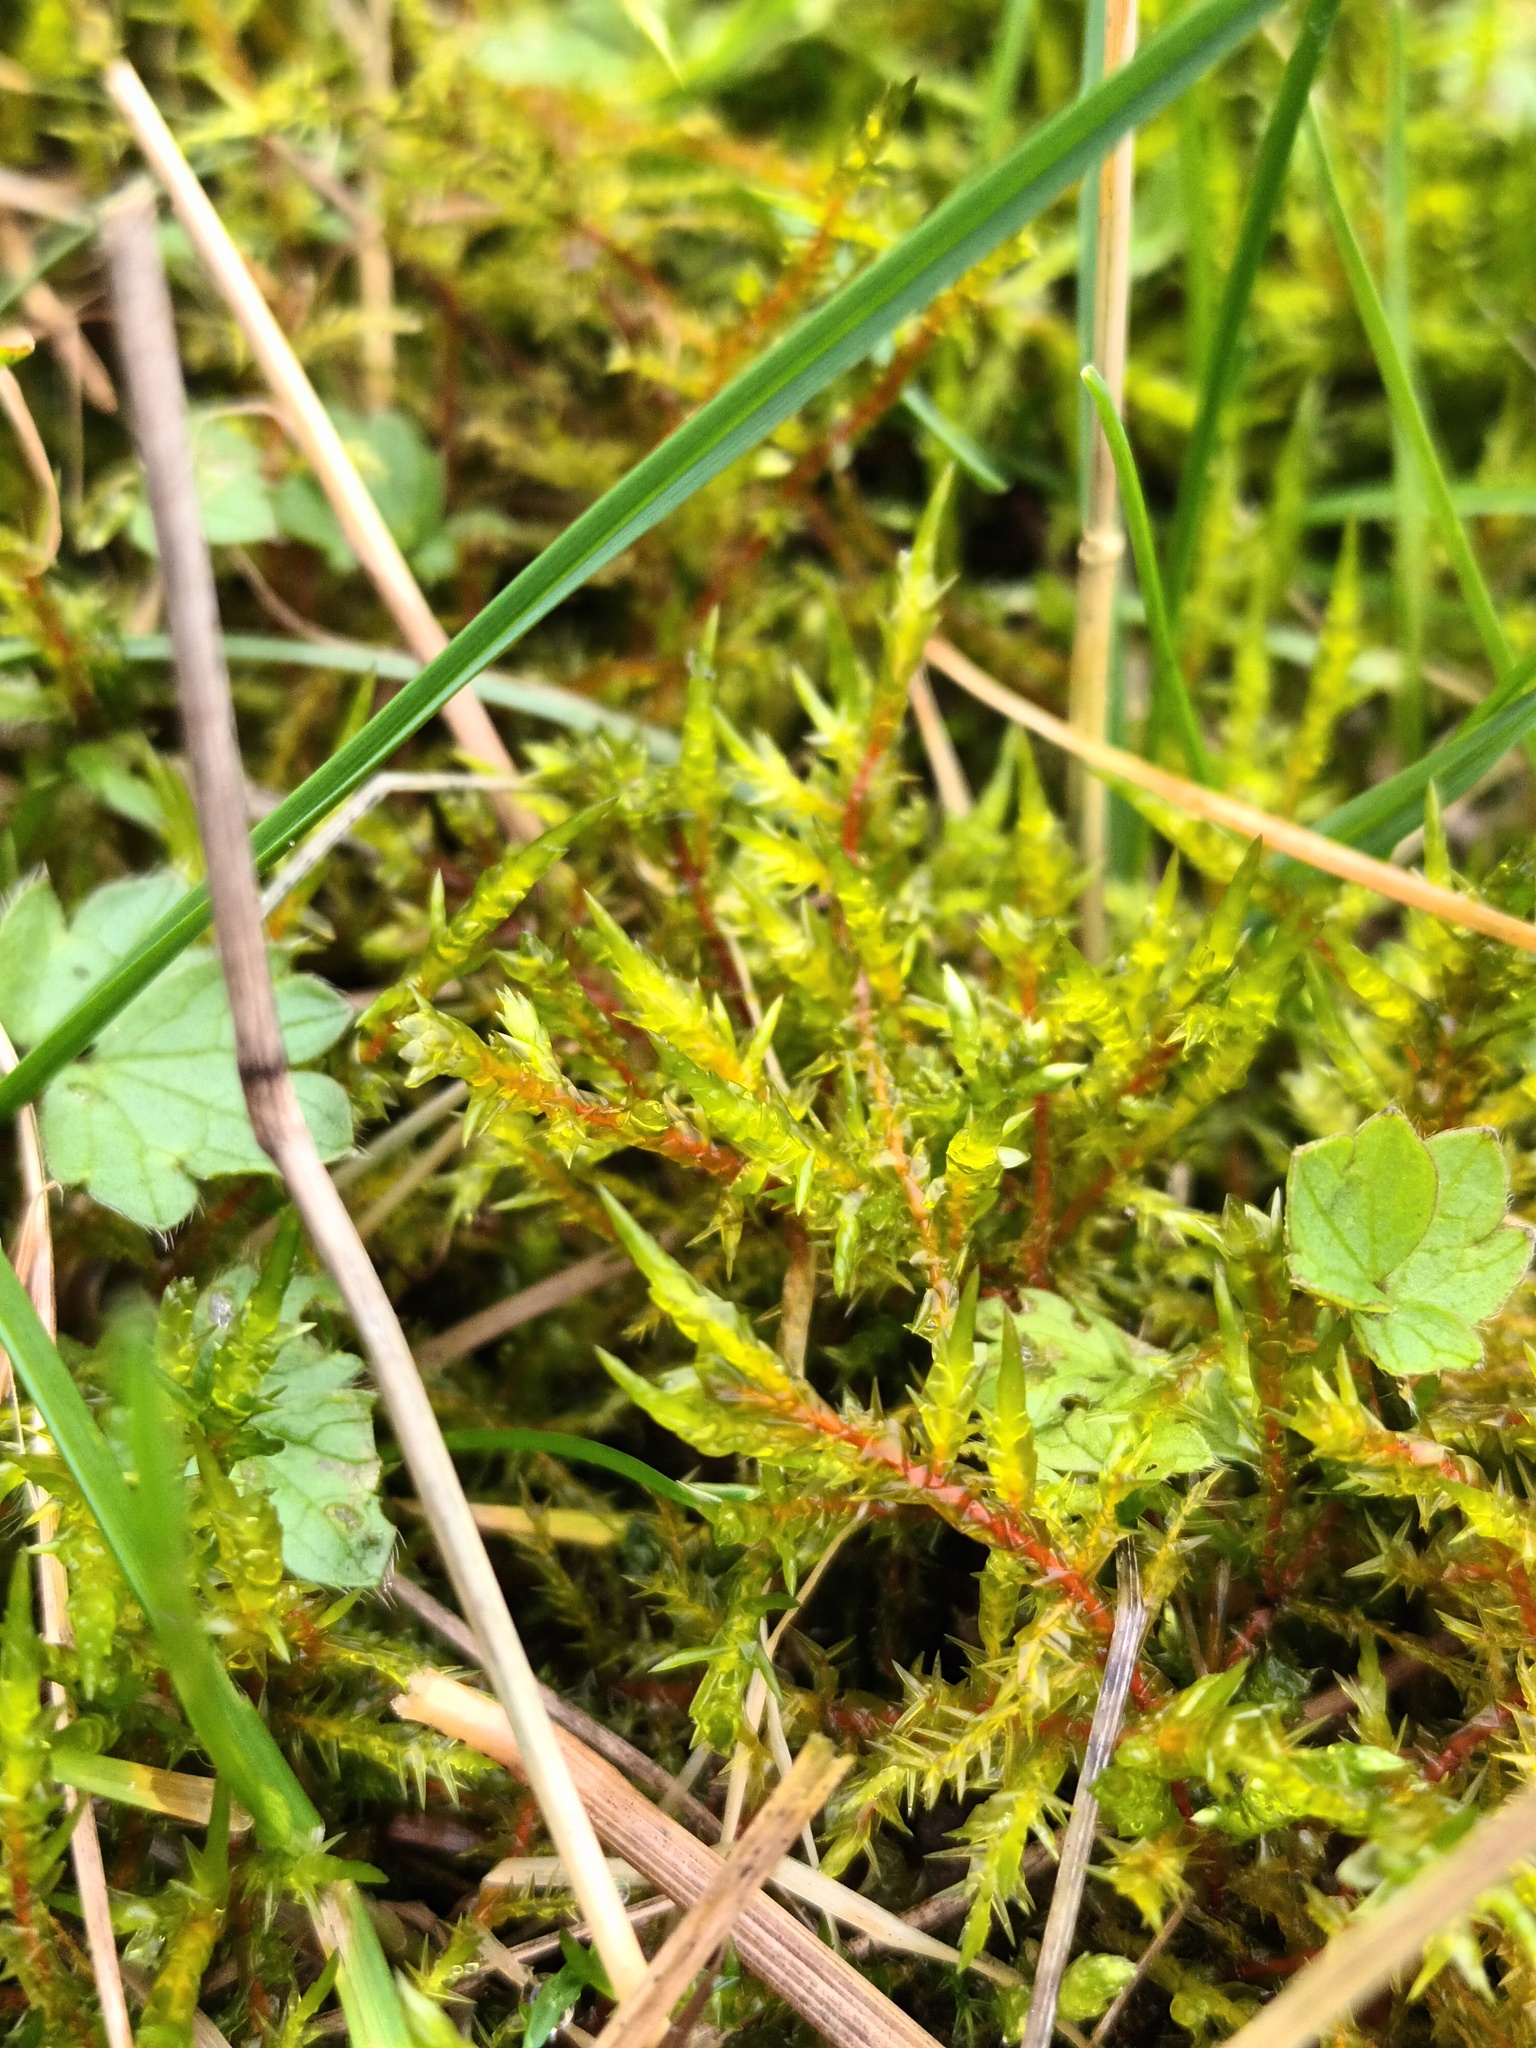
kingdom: Plantae
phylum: Bryophyta
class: Bryopsida
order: Hypnales
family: Pylaisiaceae
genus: Calliergonella
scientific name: Calliergonella cuspidata
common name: Common large wetland moss
